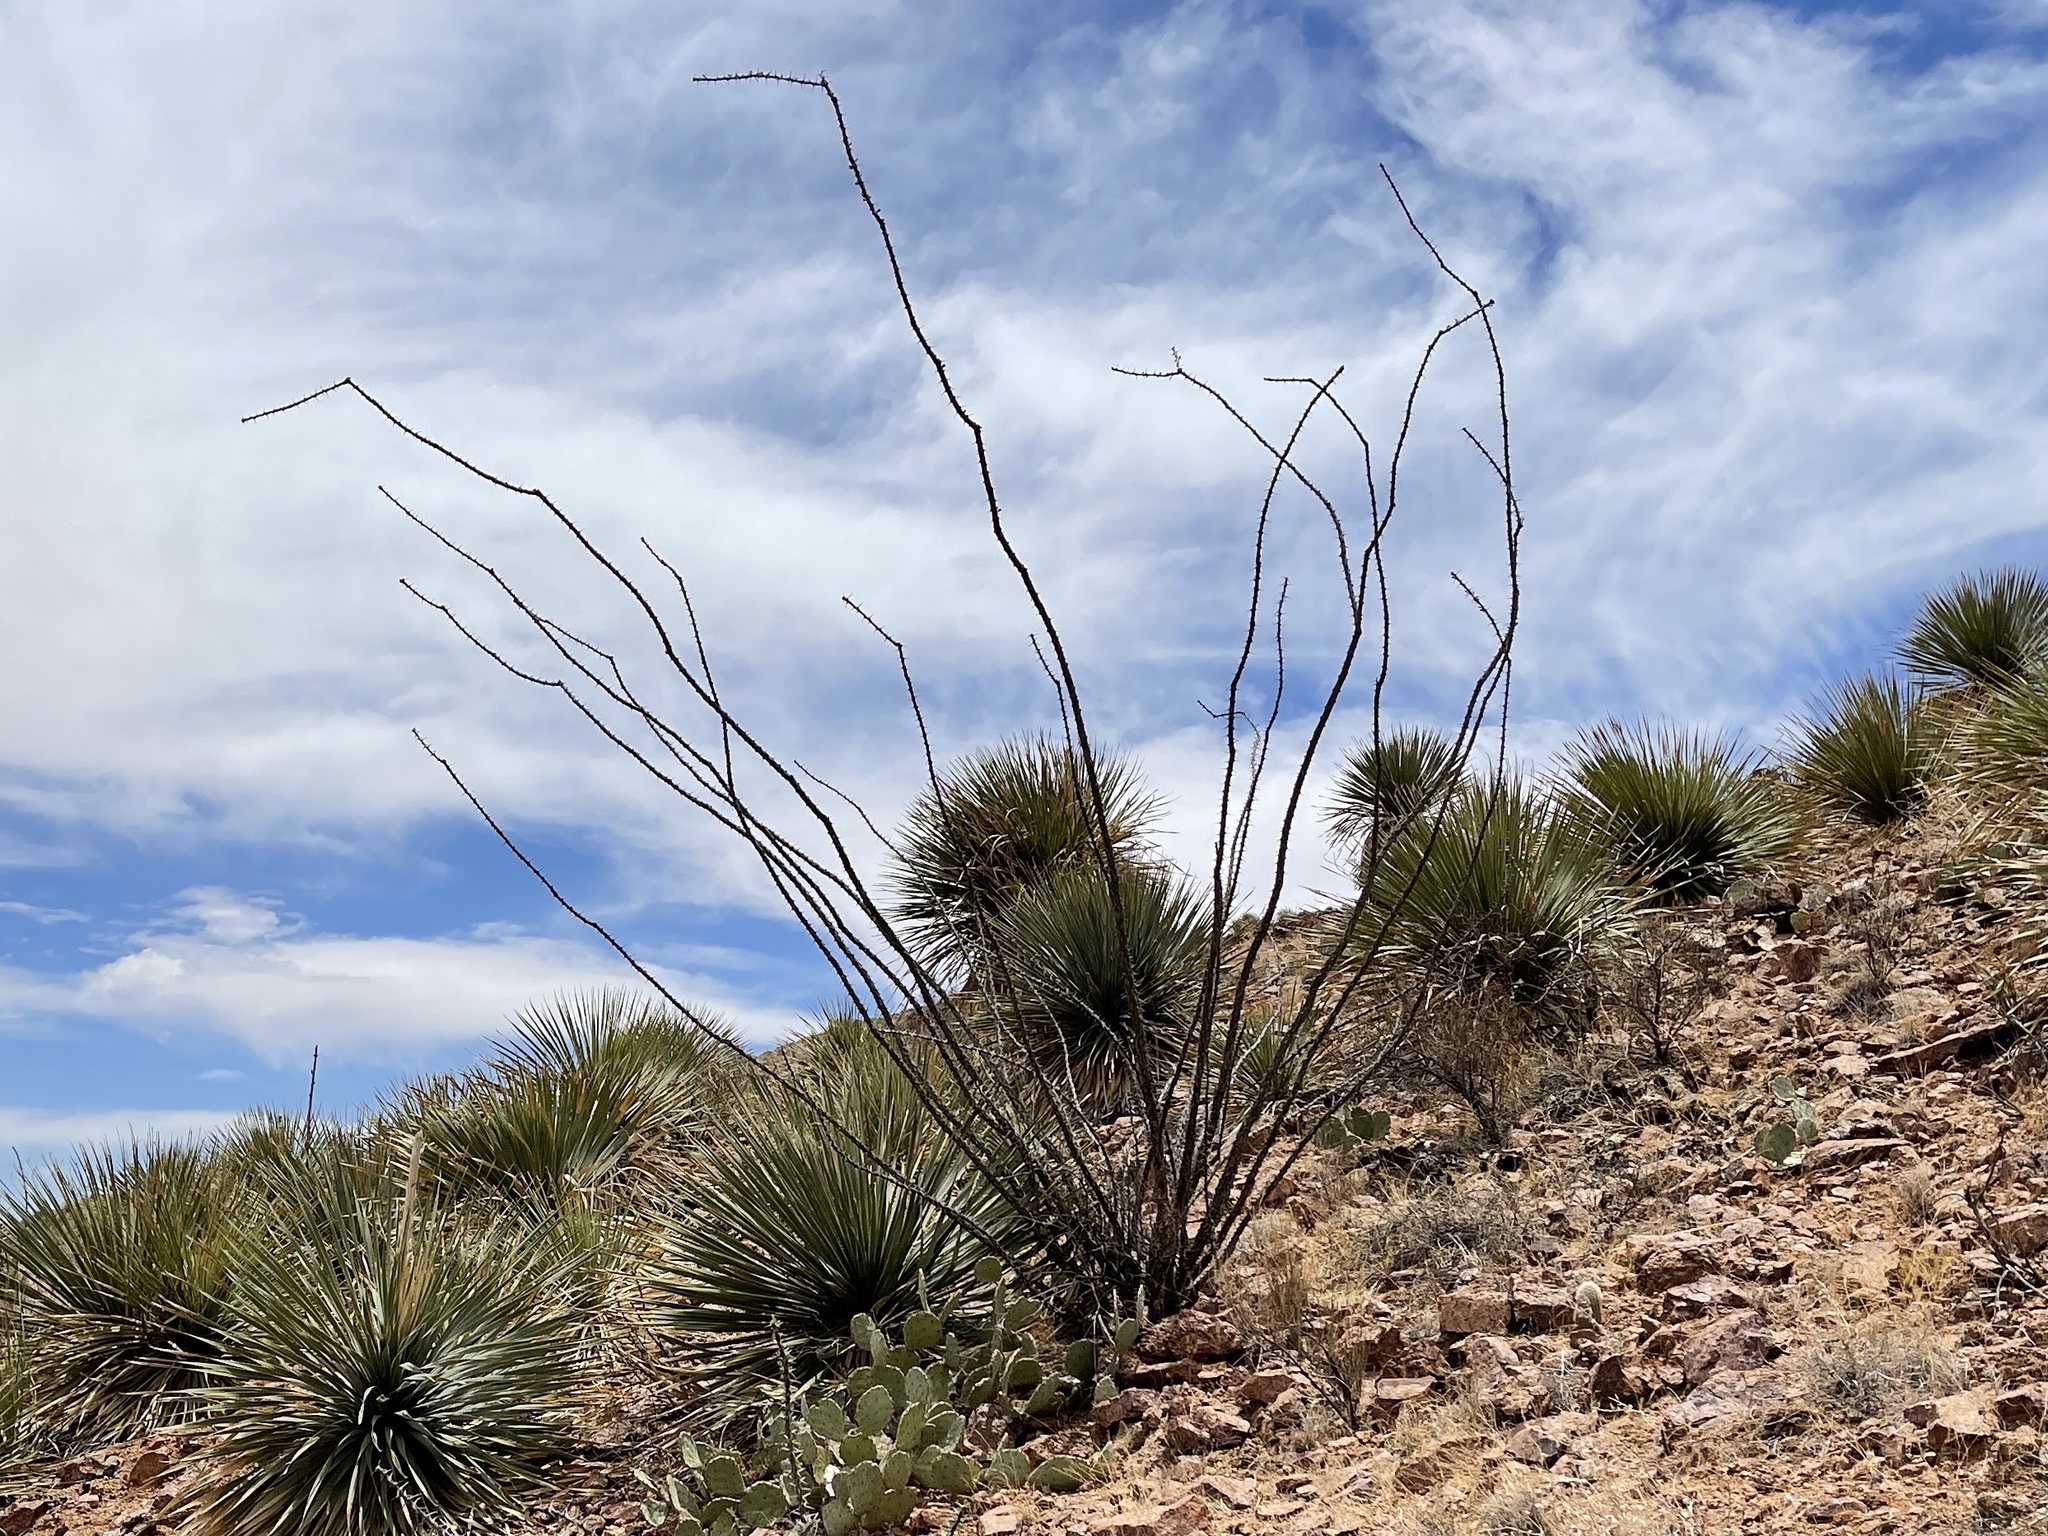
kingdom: Plantae
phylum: Tracheophyta
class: Magnoliopsida
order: Ericales
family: Fouquieriaceae
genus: Fouquieria
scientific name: Fouquieria splendens
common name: Vine-cactus
